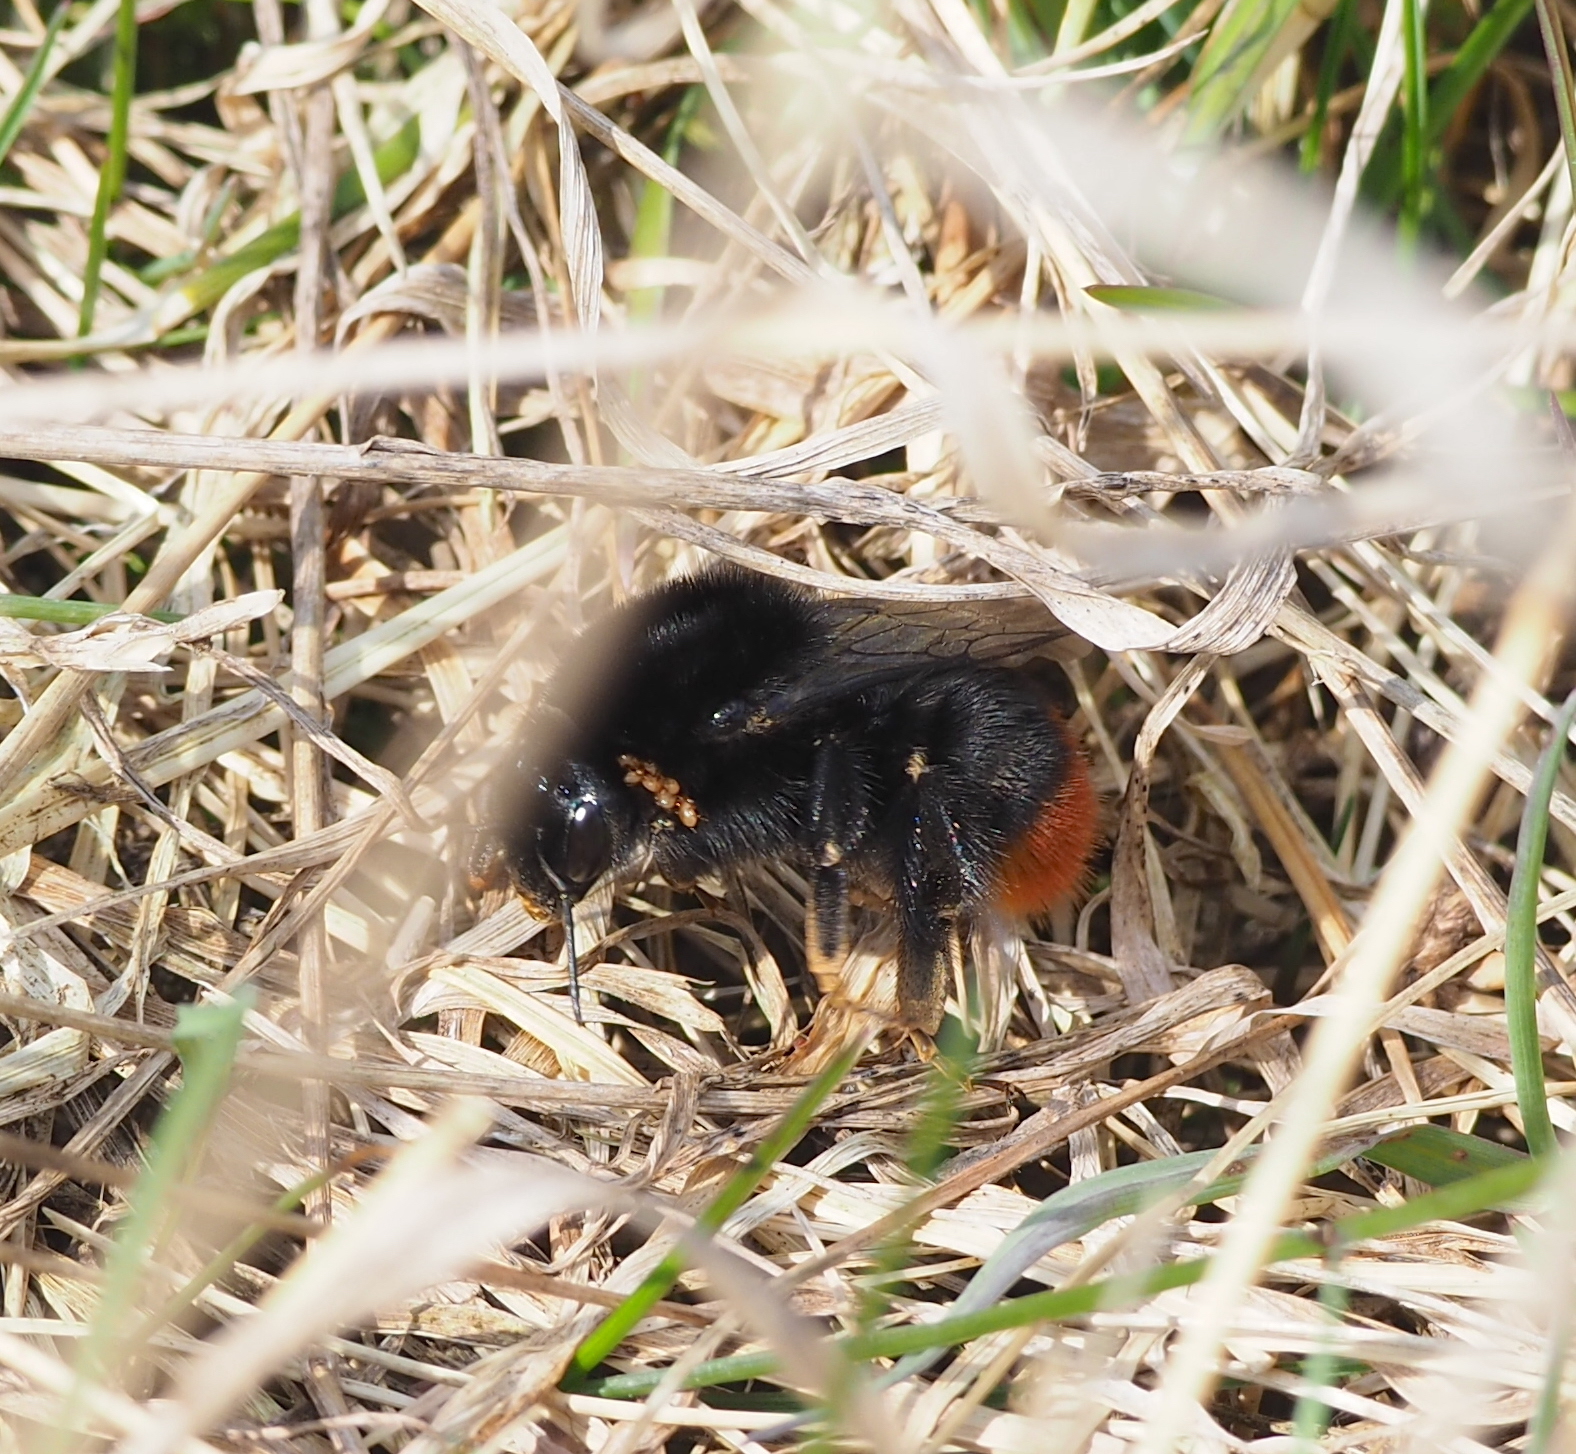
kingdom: Animalia
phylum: Arthropoda
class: Insecta
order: Hymenoptera
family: Apidae
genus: Bombus
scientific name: Bombus lapidarius
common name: Large red-tailed humble-bee
